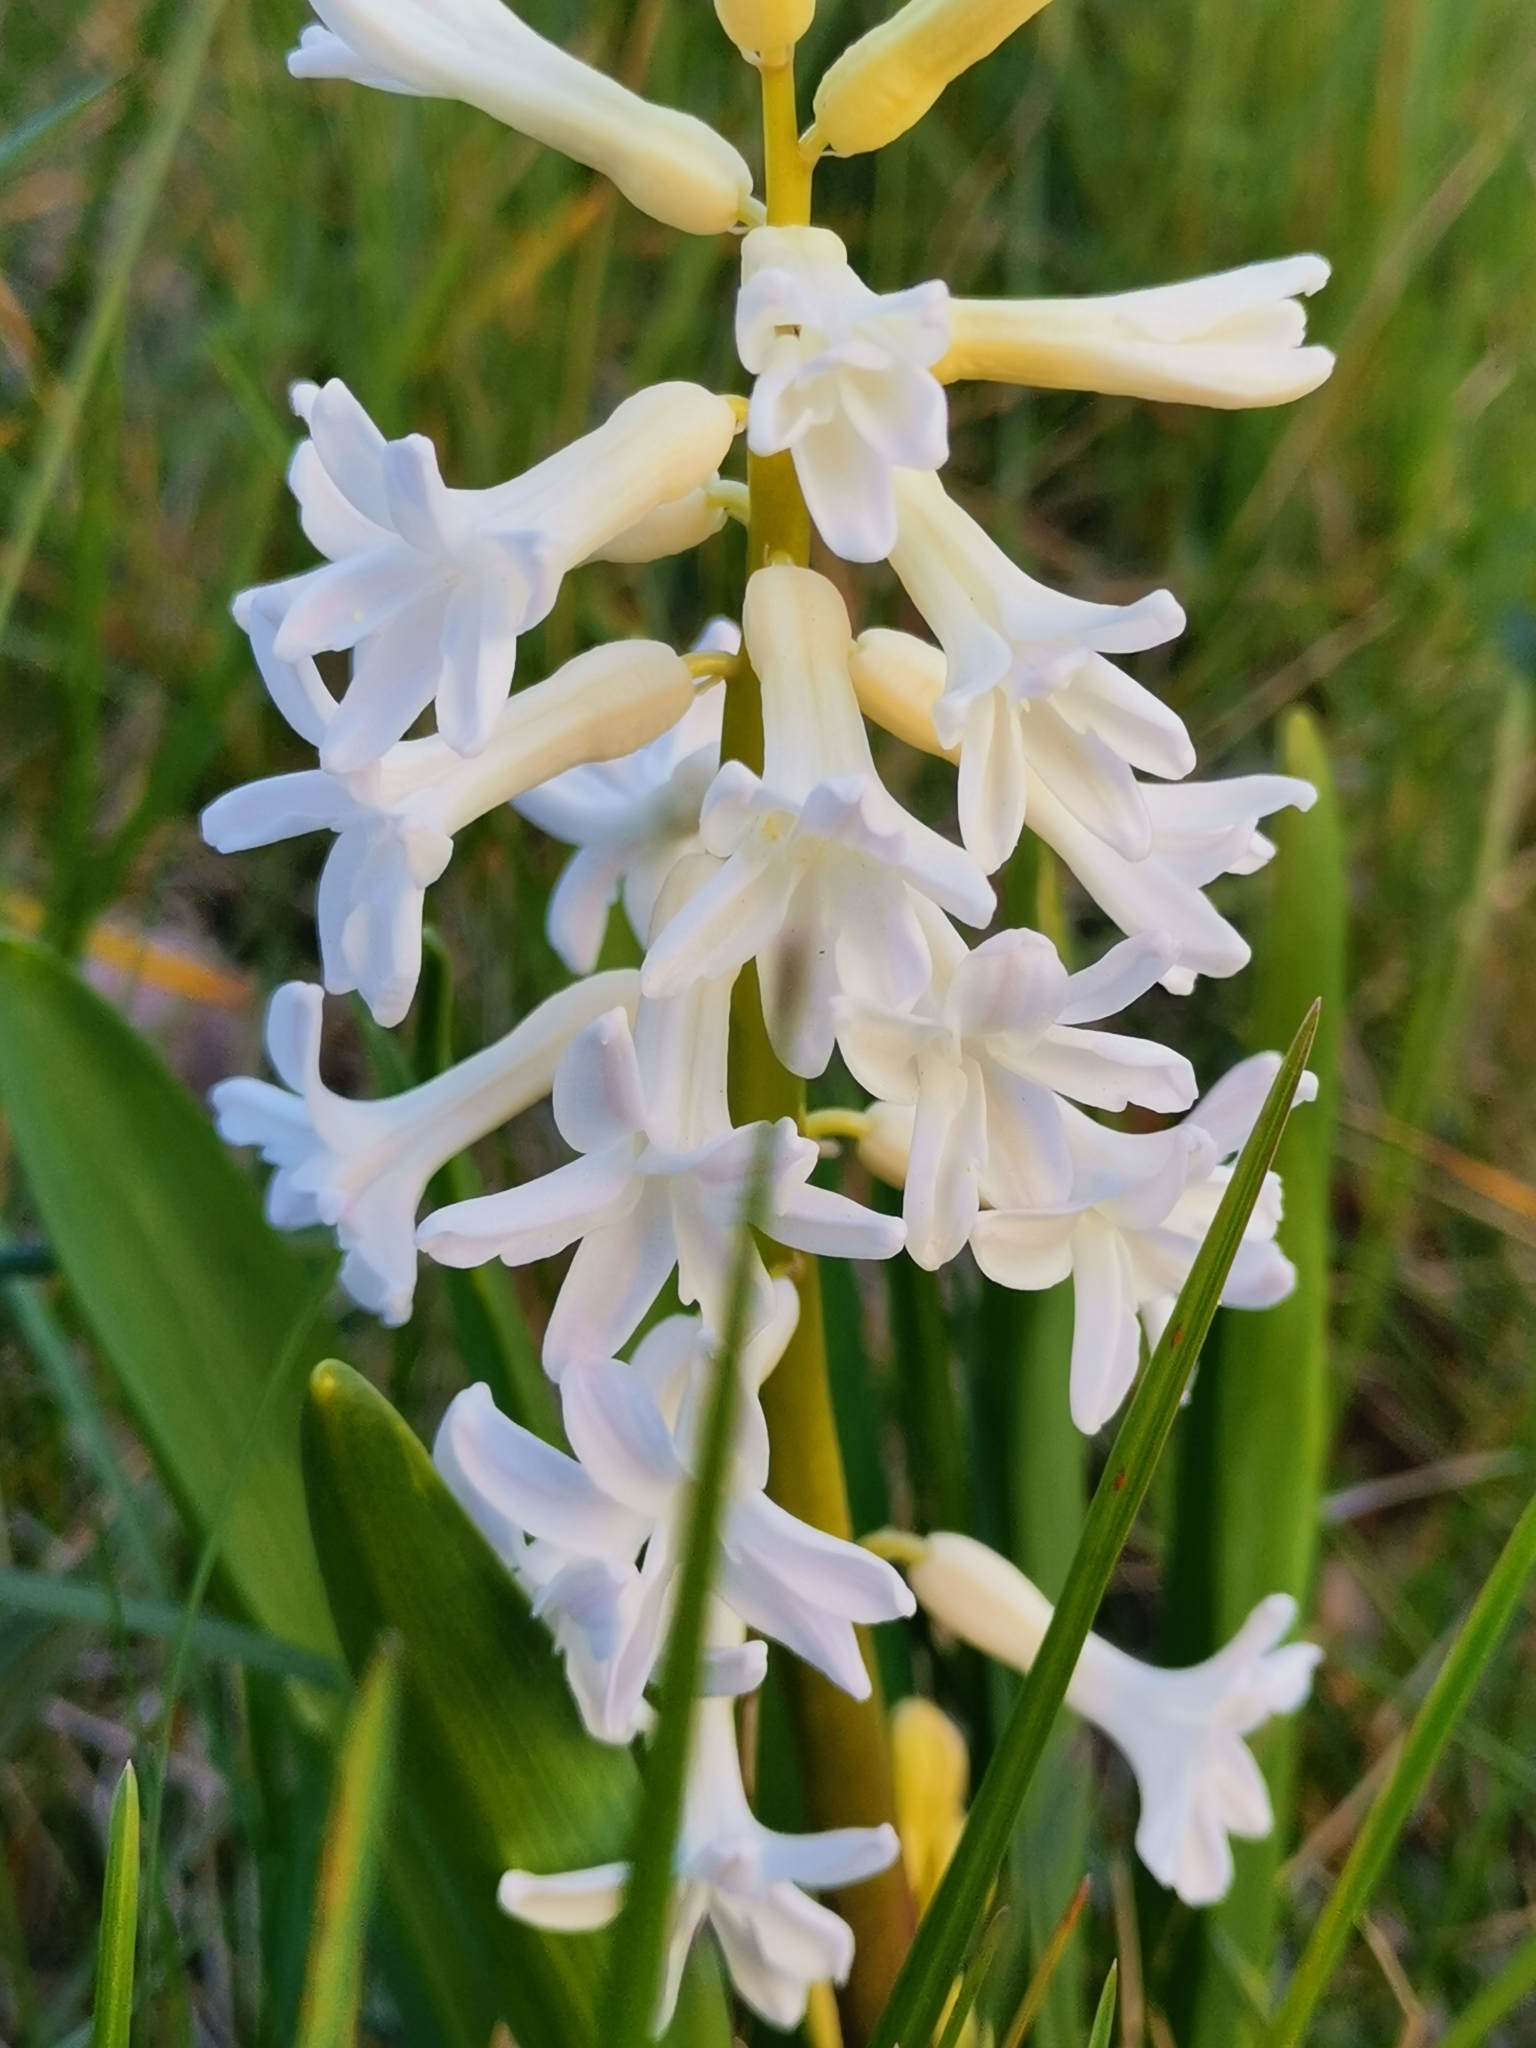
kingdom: Plantae
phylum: Tracheophyta
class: Liliopsida
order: Asparagales
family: Asparagaceae
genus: Hyacinthus
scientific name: Hyacinthus orientalis
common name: Hyacinth
